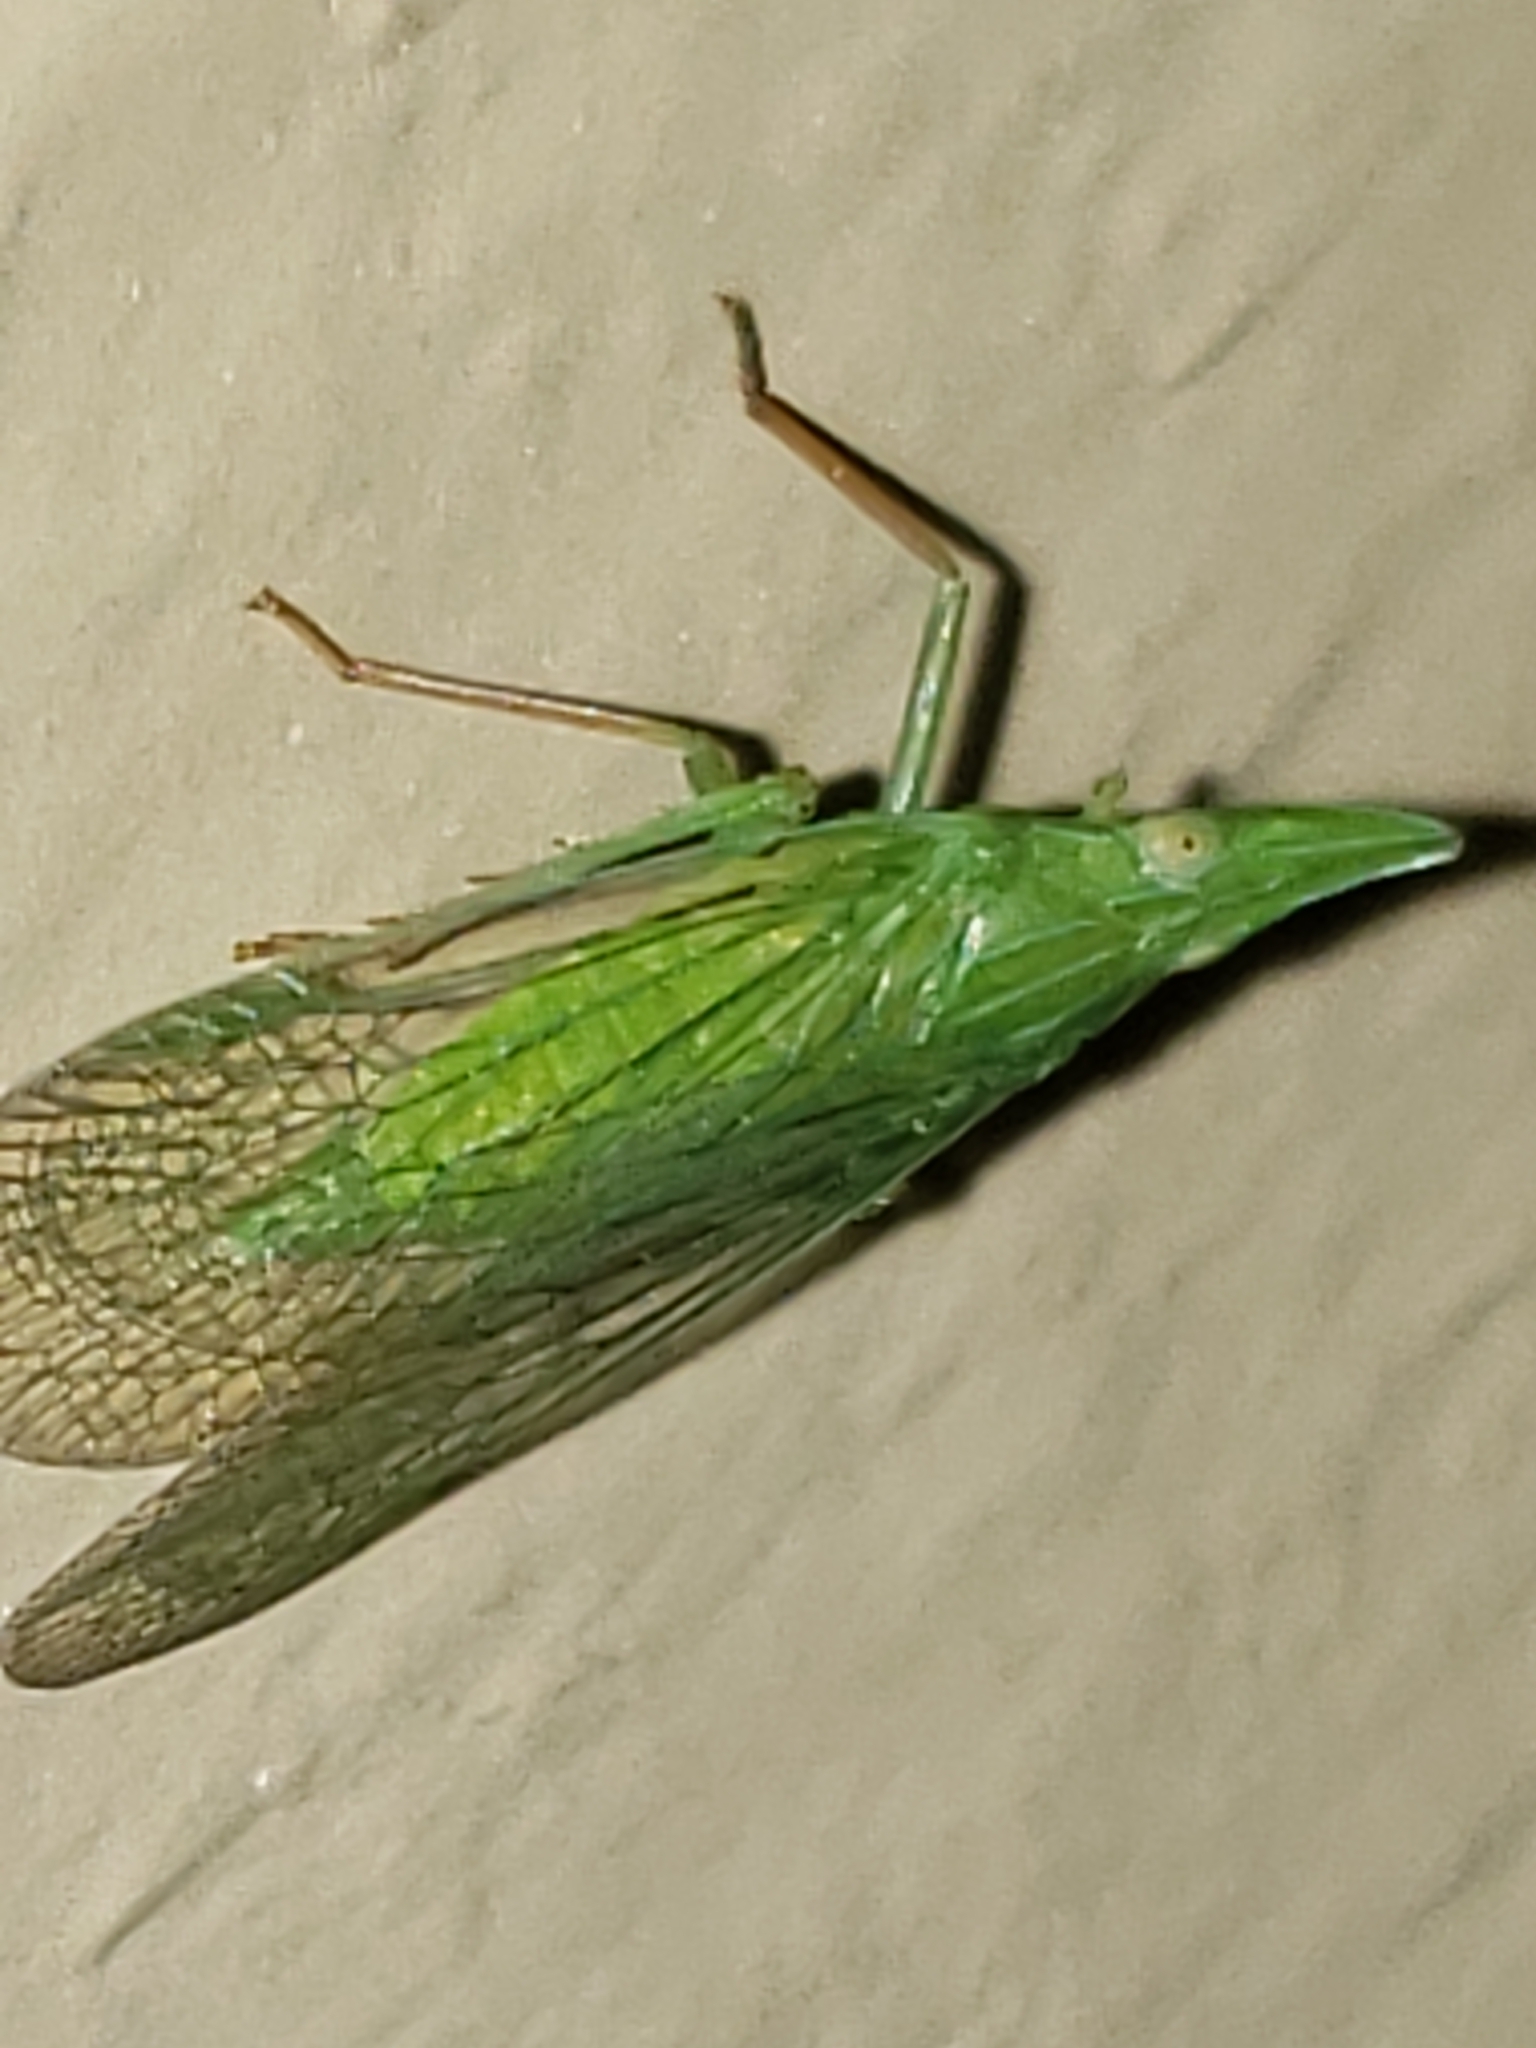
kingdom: Animalia
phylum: Arthropoda
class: Insecta
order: Hemiptera
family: Dictyopharidae
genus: Rhynchomitra
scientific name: Rhynchomitra microrhina
